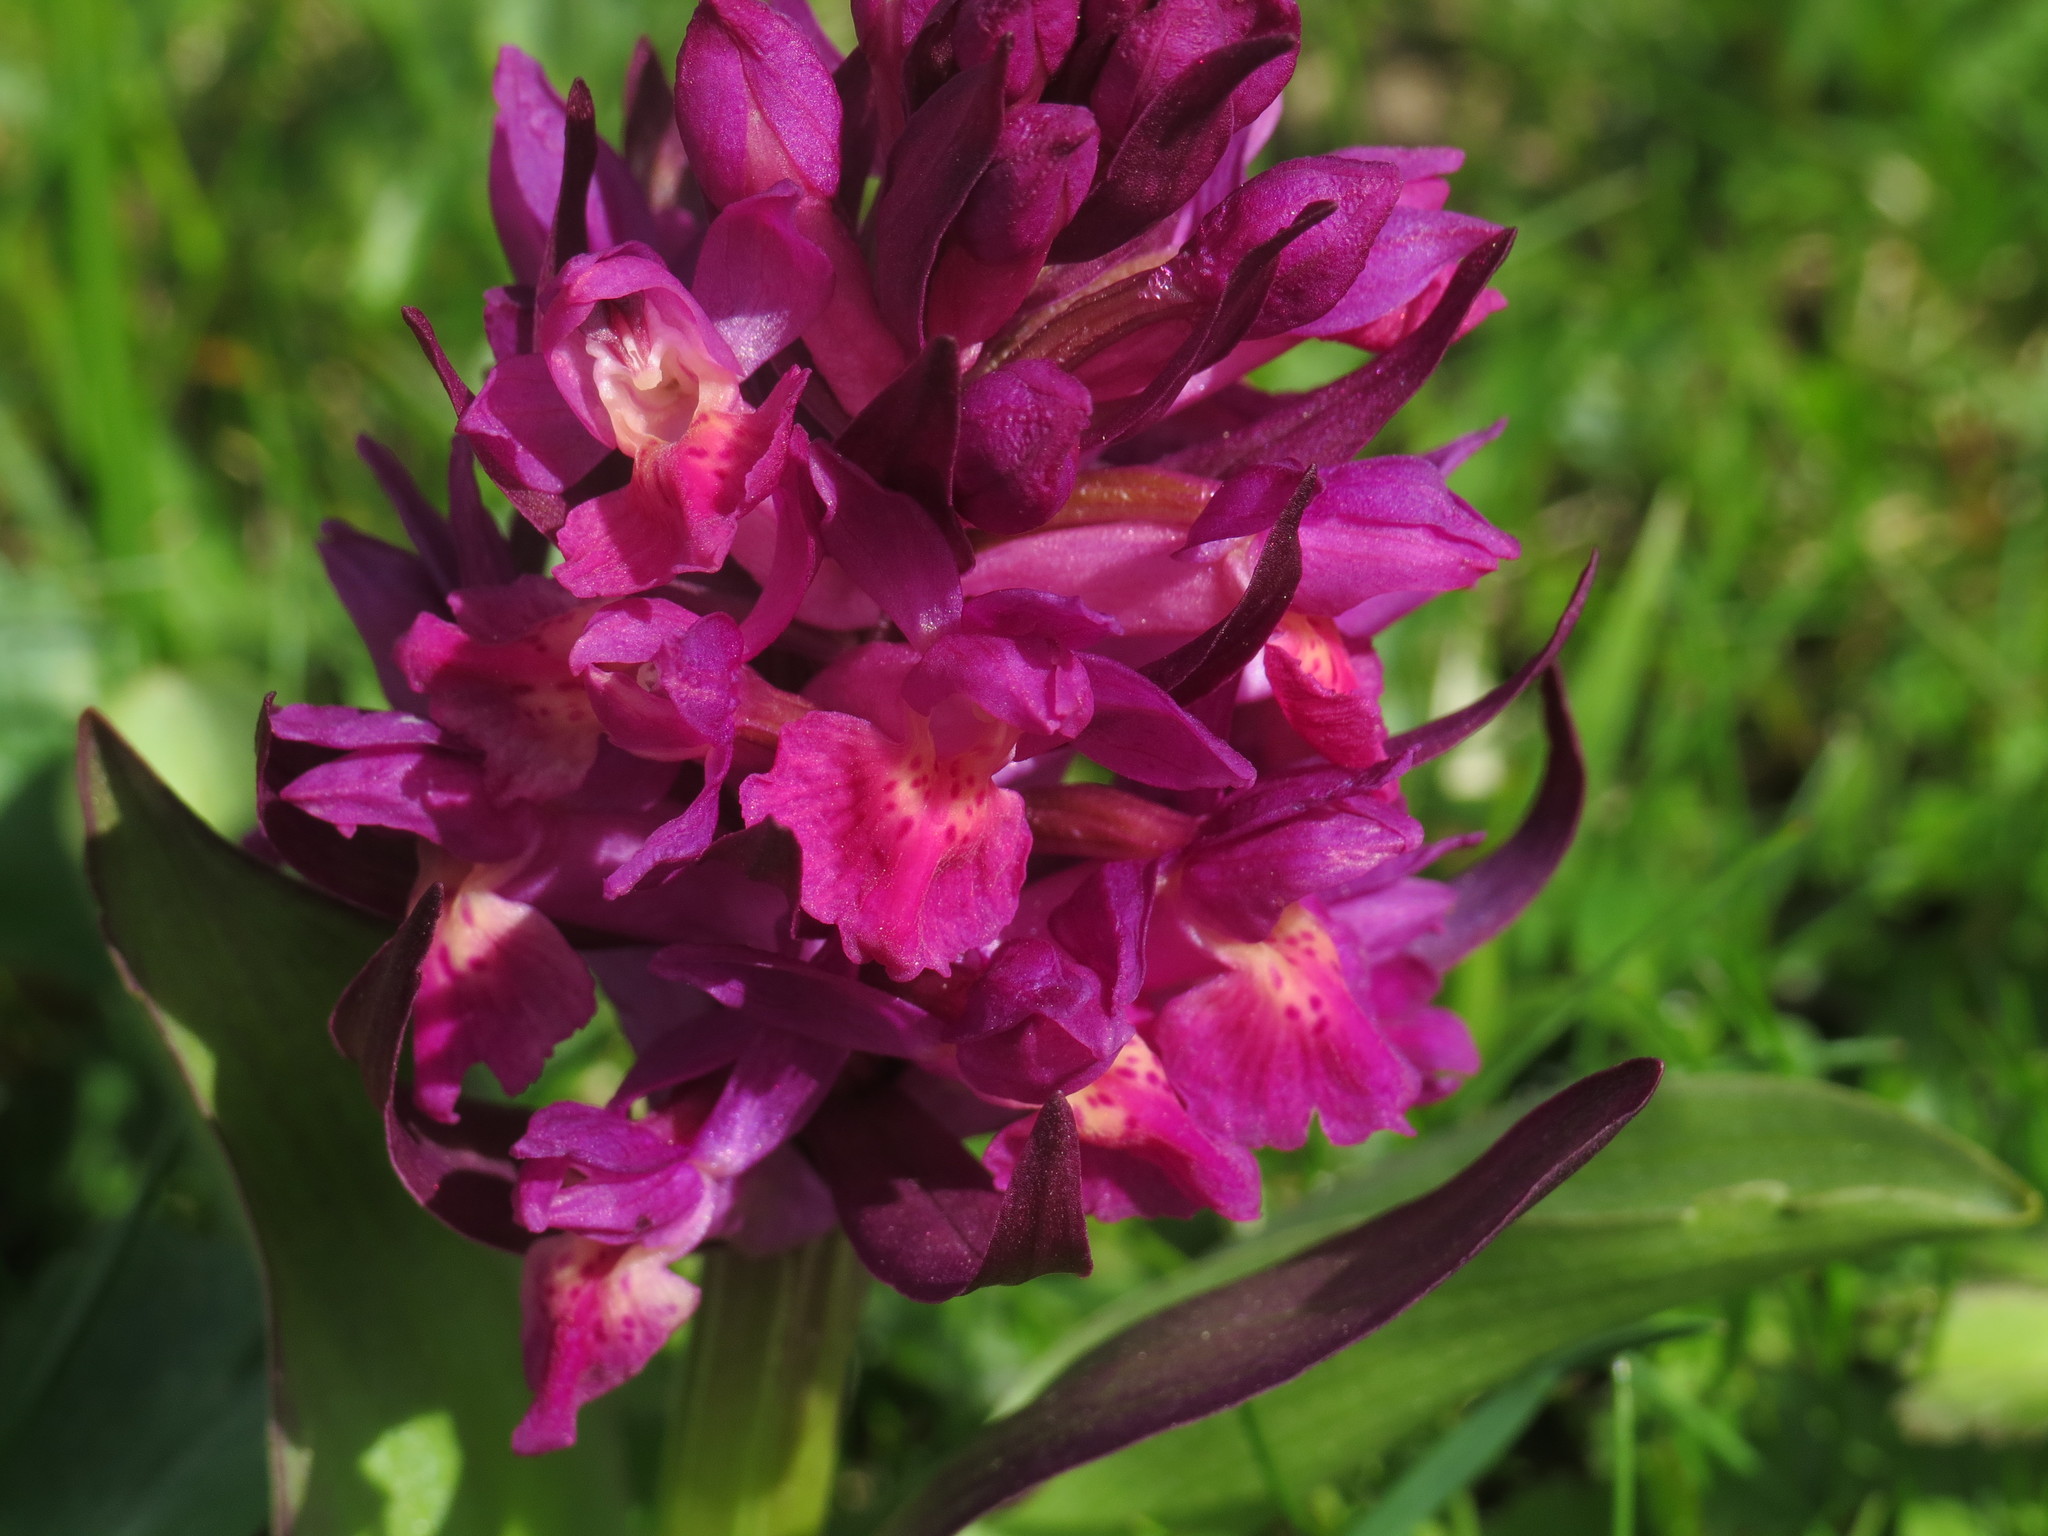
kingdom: Plantae
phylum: Tracheophyta
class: Liliopsida
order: Asparagales
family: Orchidaceae
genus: Dactylorhiza
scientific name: Dactylorhiza sambucina
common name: Elder-flowered orchid
